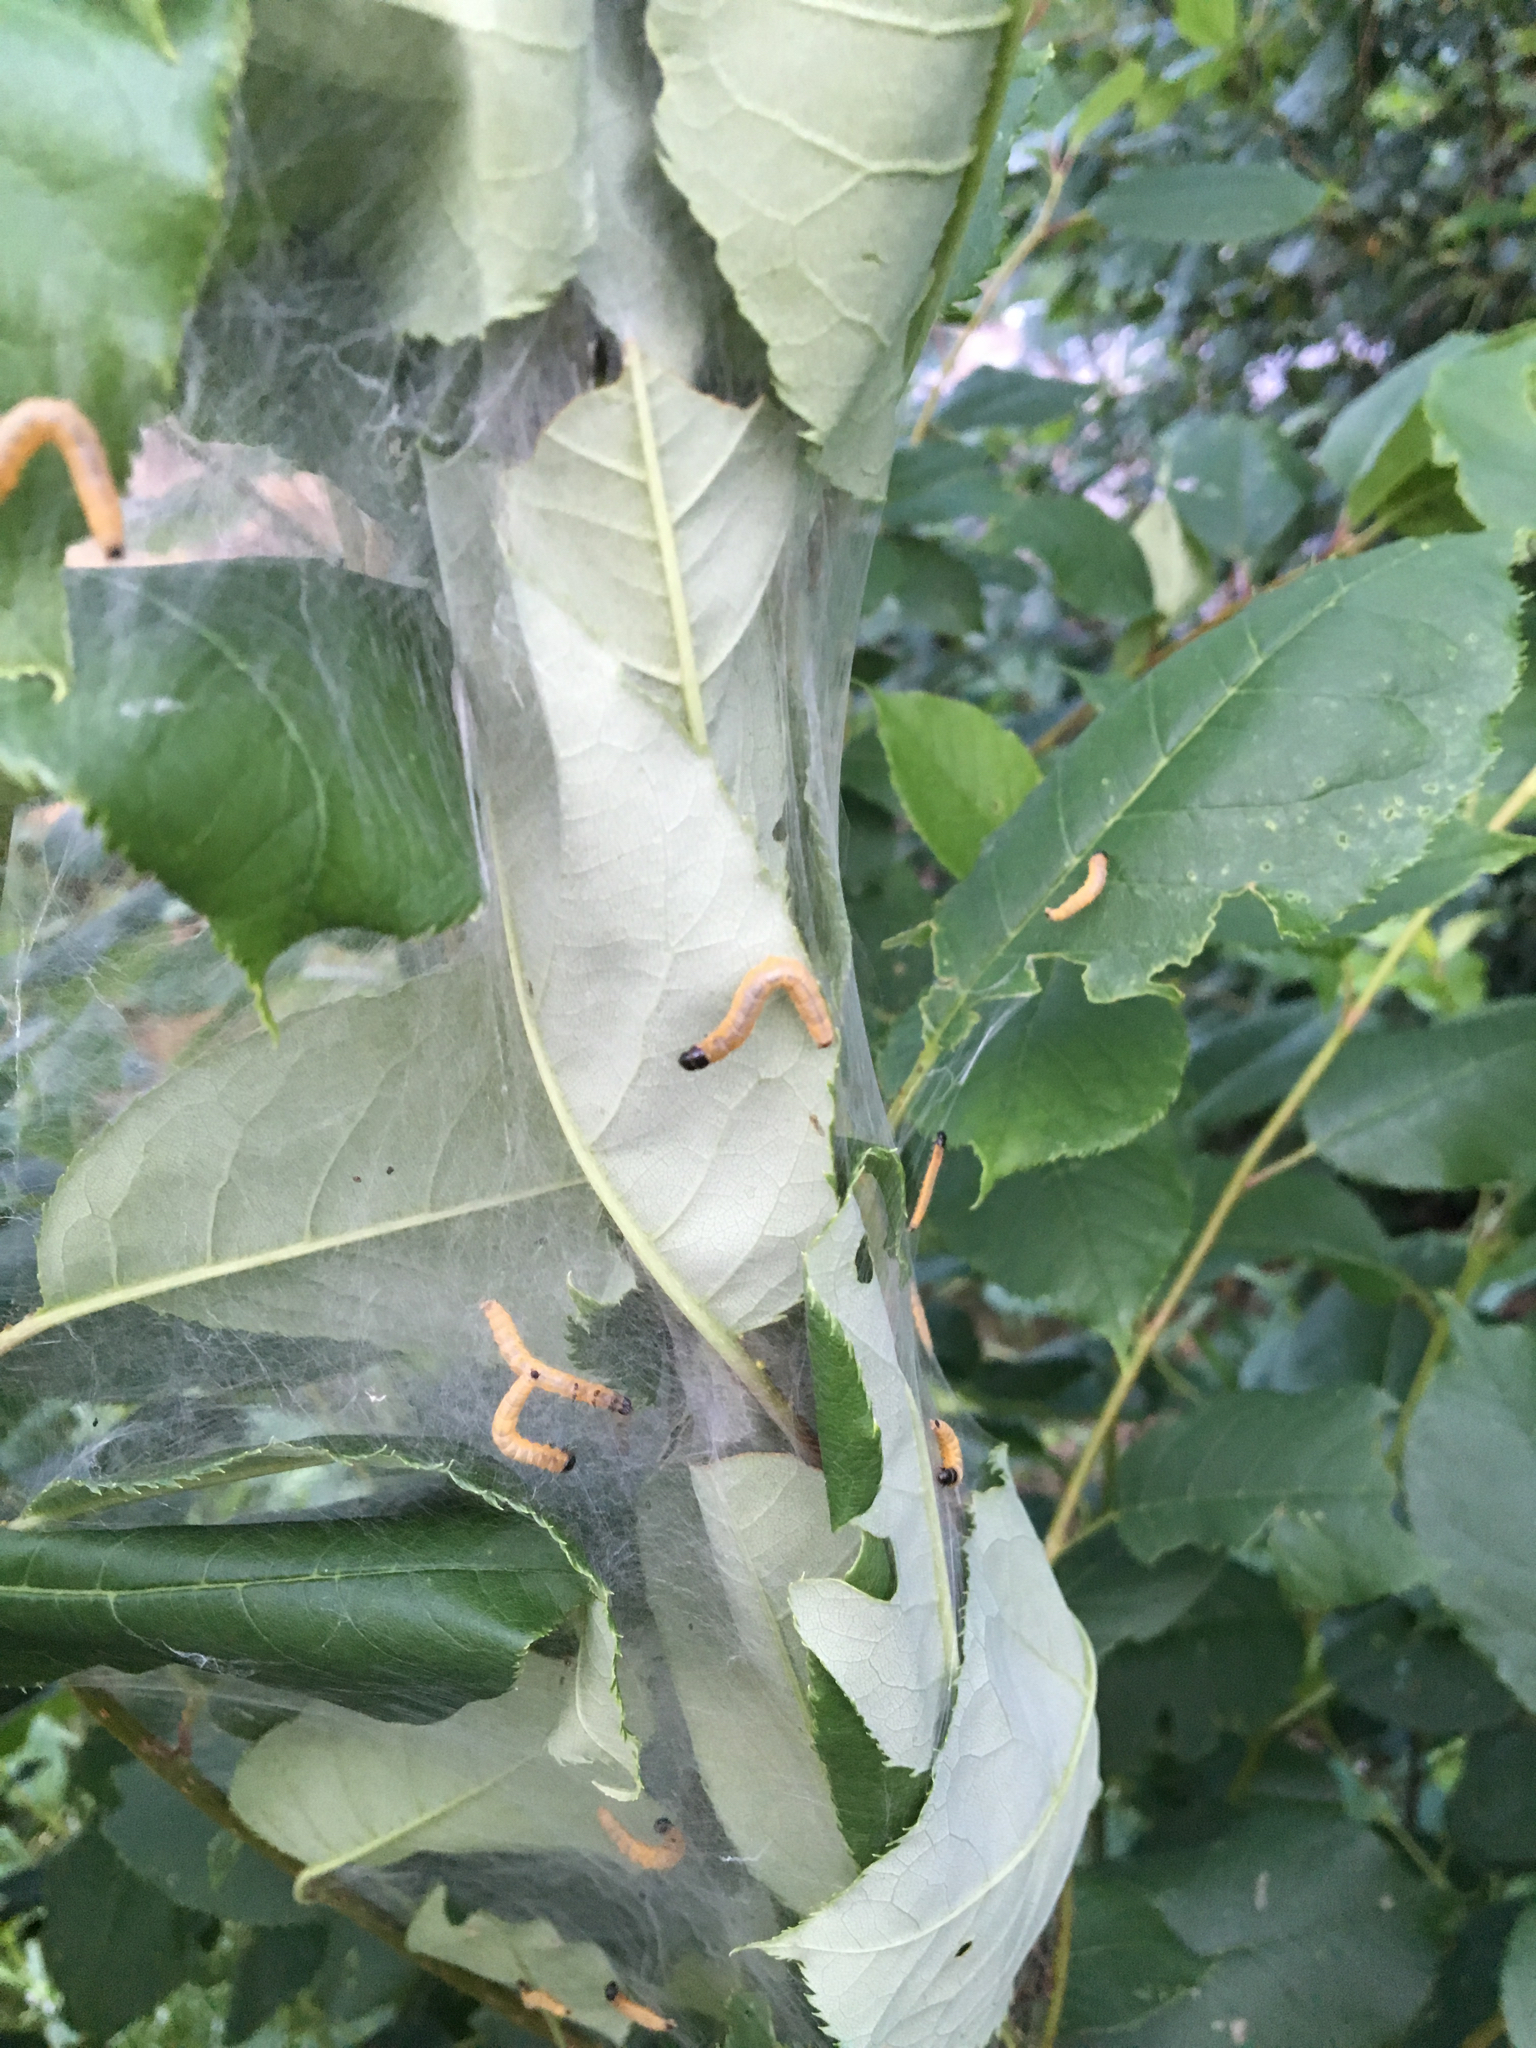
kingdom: Animalia
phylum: Arthropoda
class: Insecta
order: Lepidoptera
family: Tortricidae
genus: Archips
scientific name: Archips cerasivorana
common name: Uglynest caterpillar
